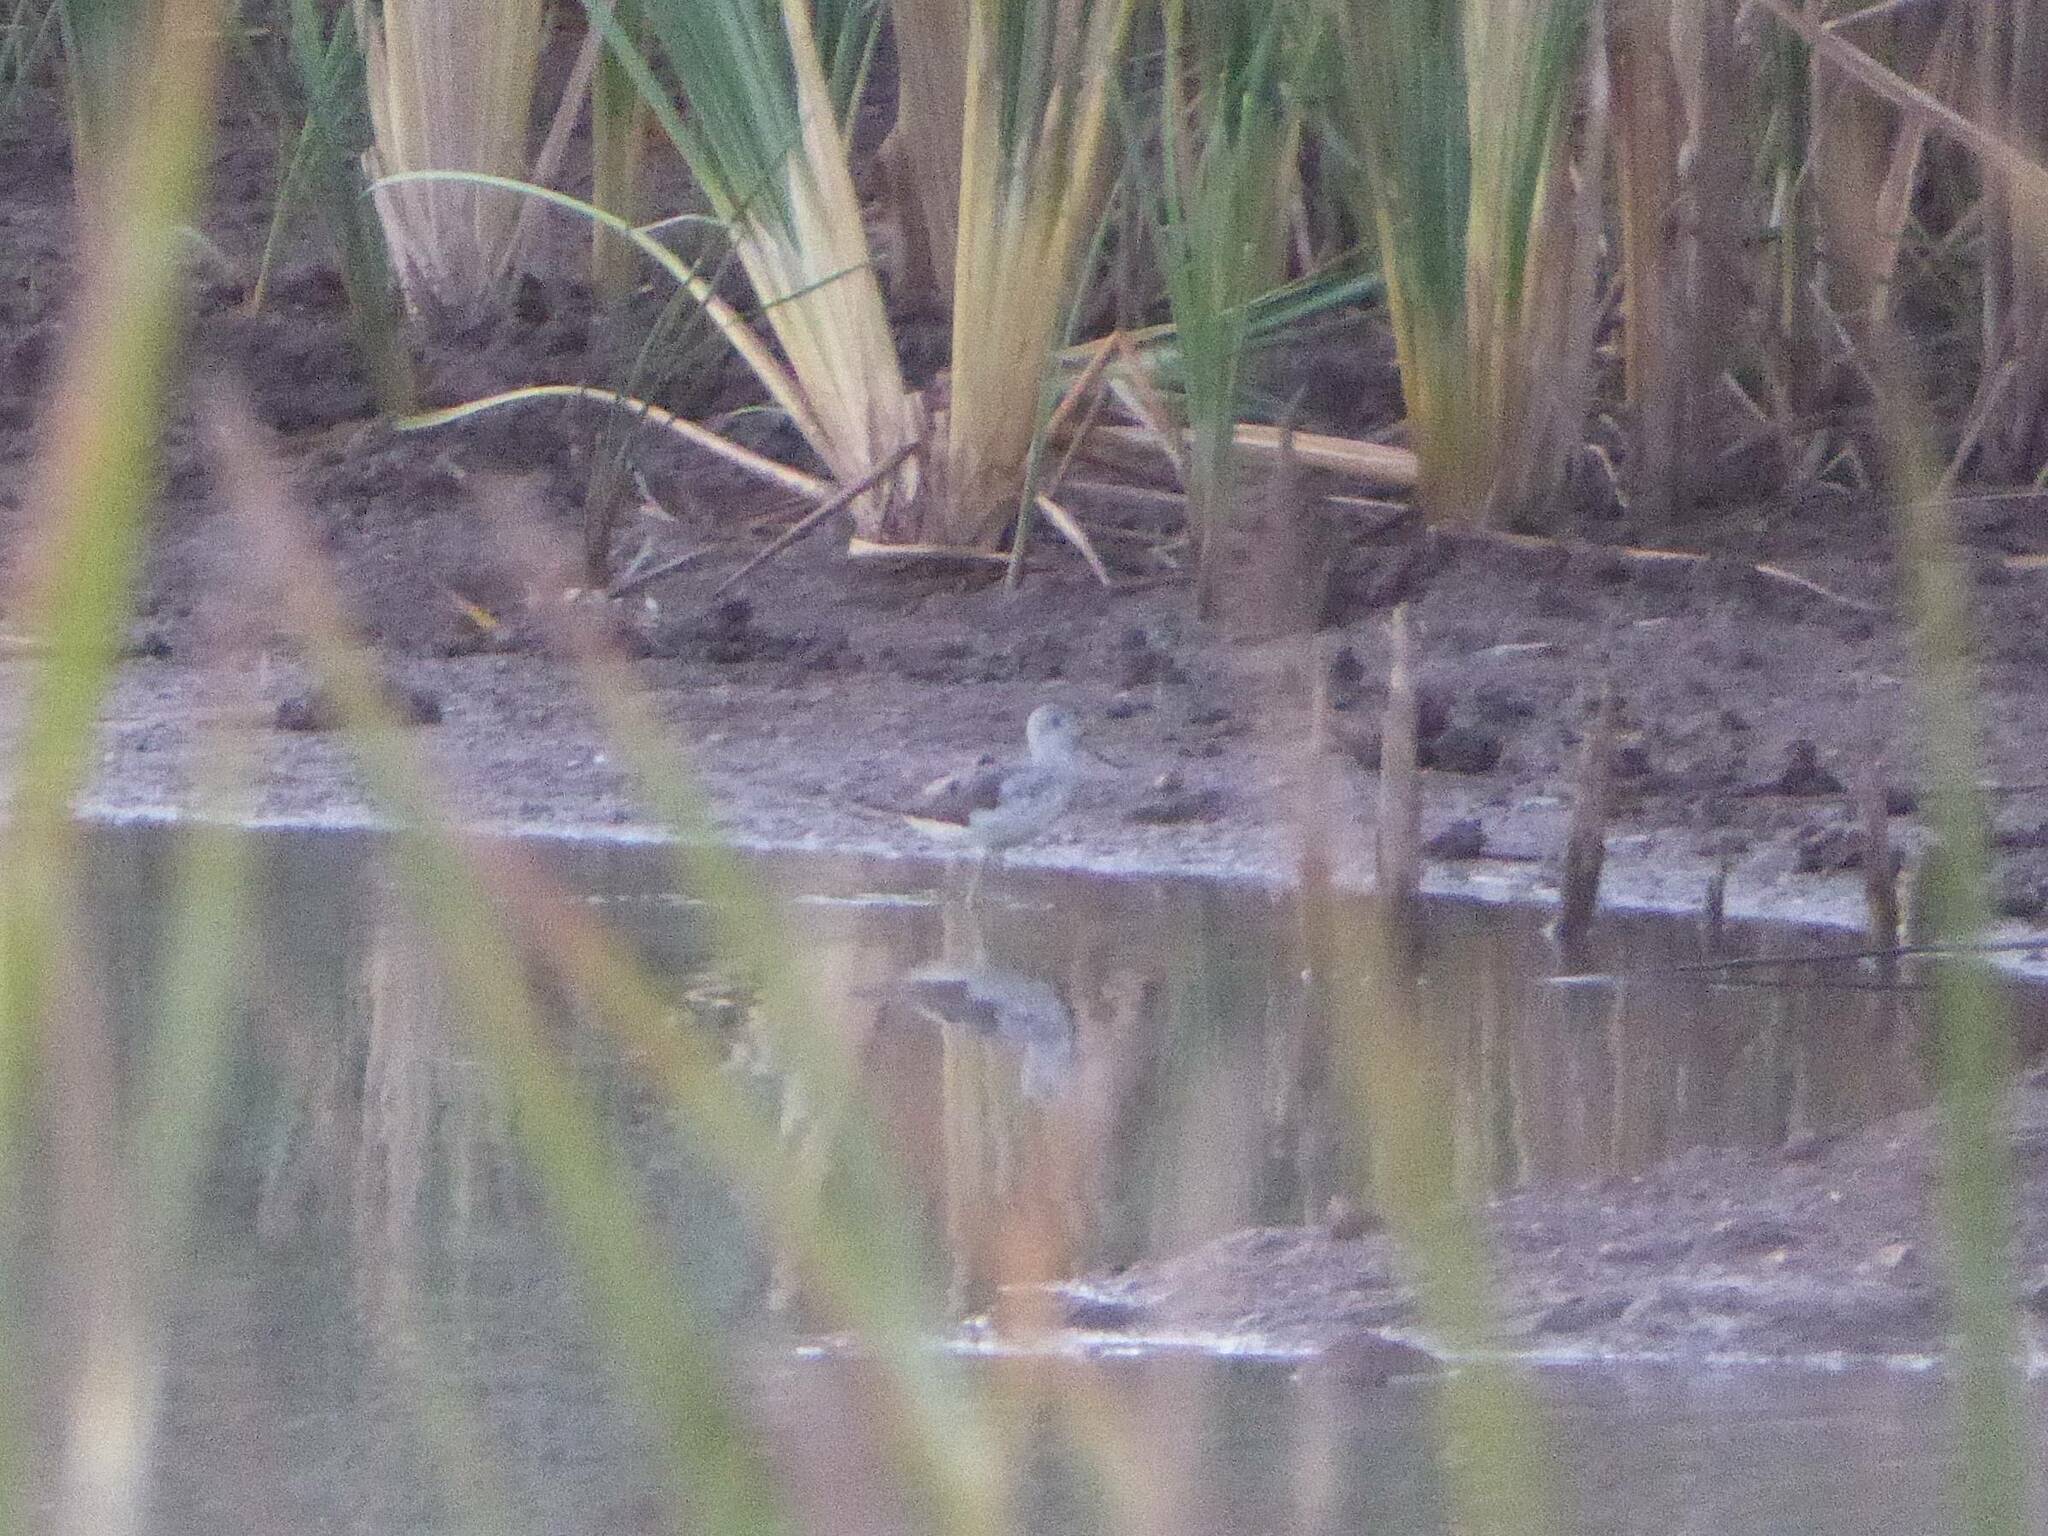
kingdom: Animalia
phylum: Chordata
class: Aves
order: Charadriiformes
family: Scolopacidae
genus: Tringa
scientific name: Tringa nebularia
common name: Common greenshank
